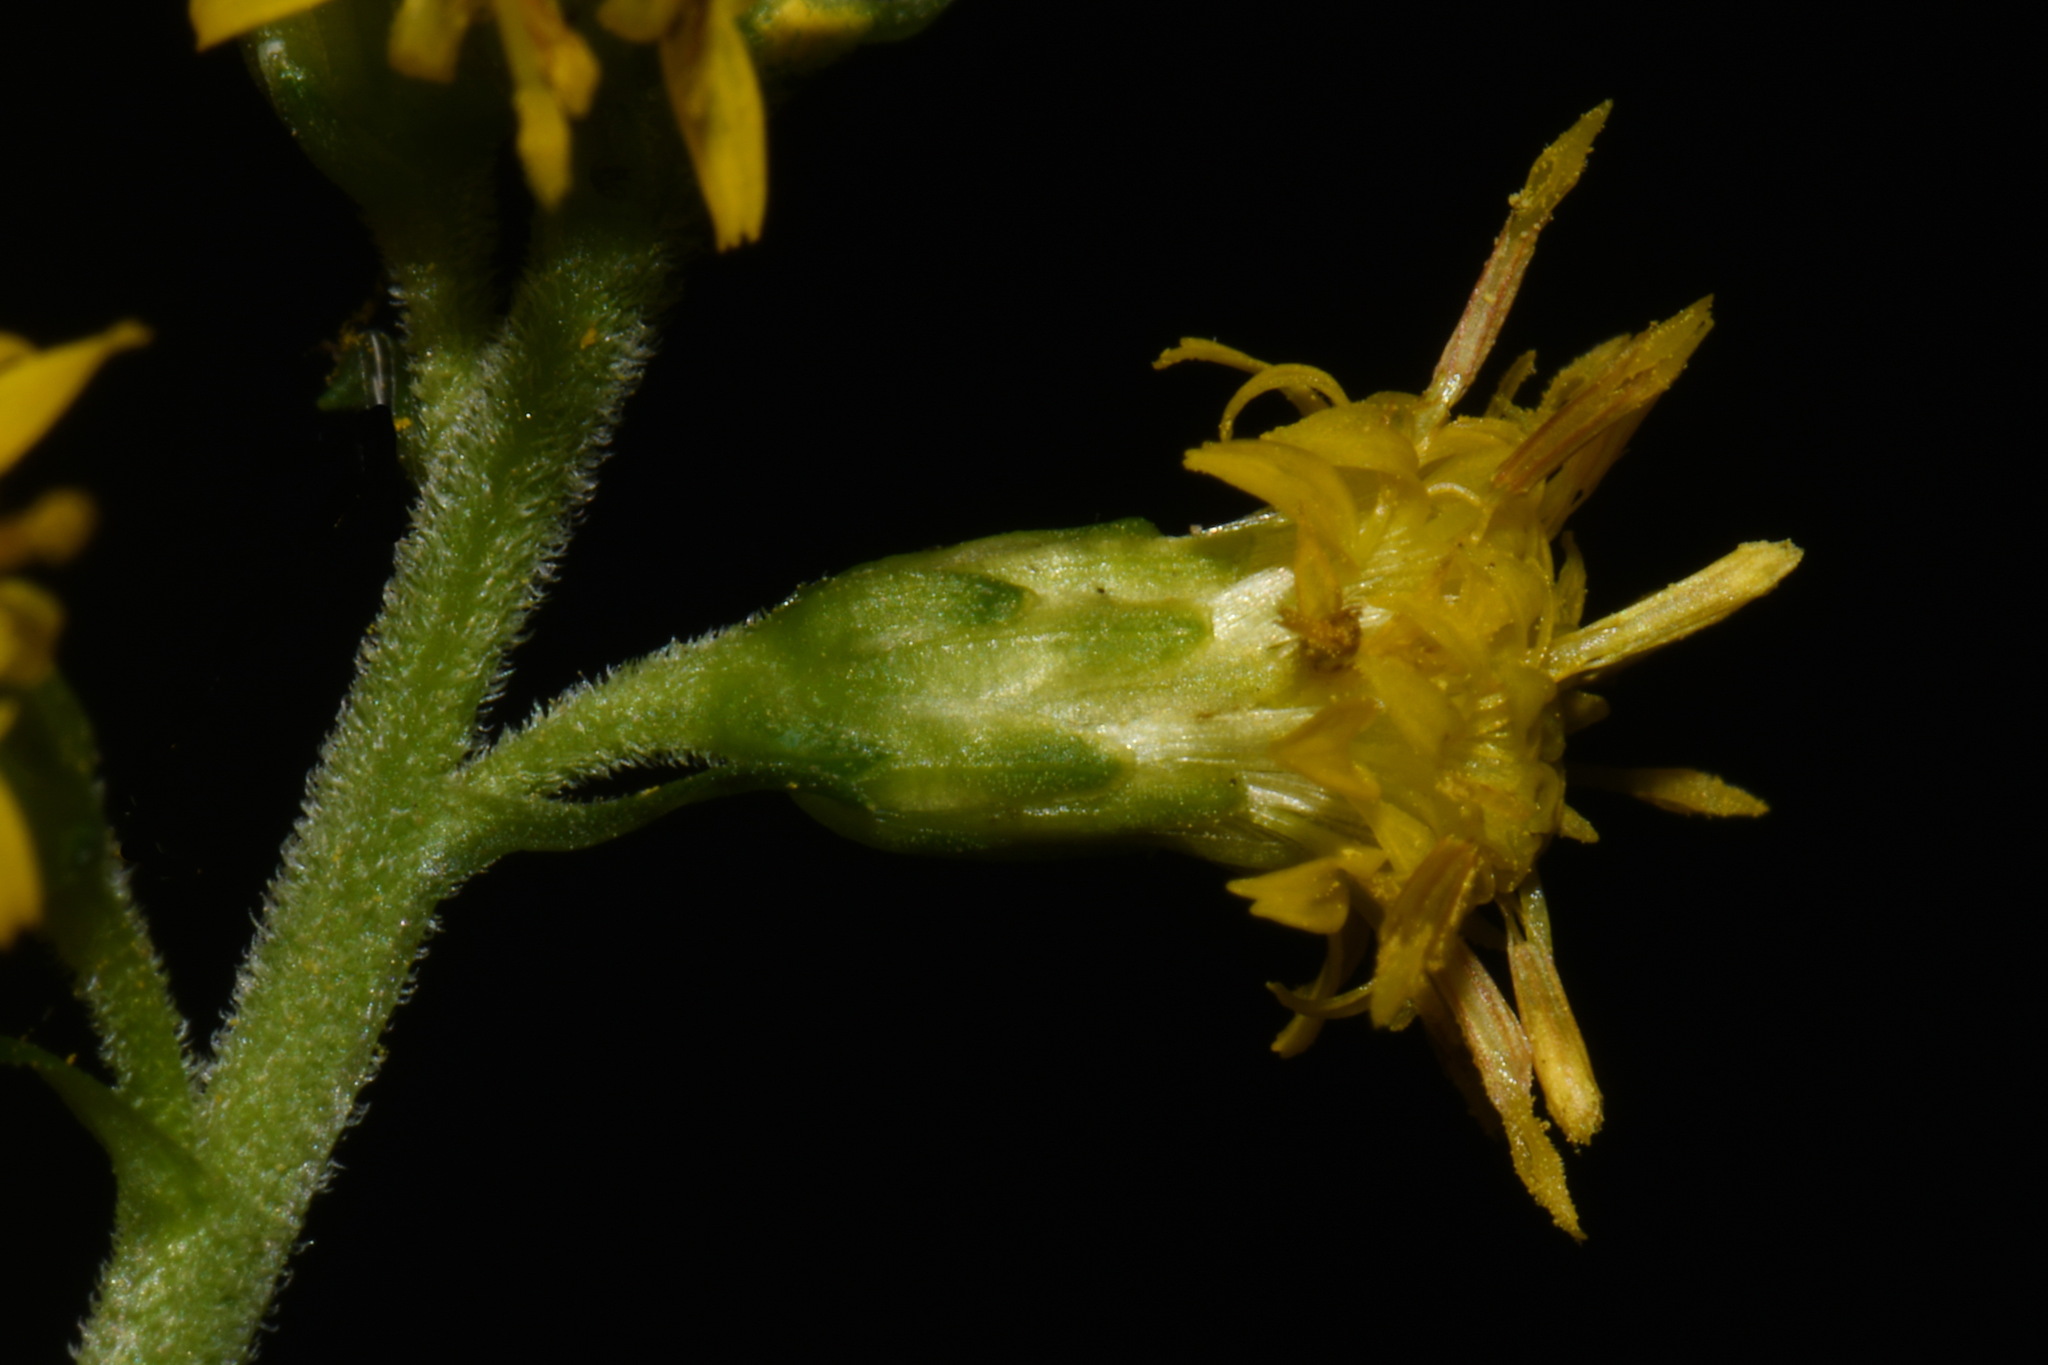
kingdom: Plantae
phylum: Tracheophyta
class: Magnoliopsida
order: Asterales
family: Asteraceae
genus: Solidago
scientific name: Solidago patula
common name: Rough-leaf goldenrod
